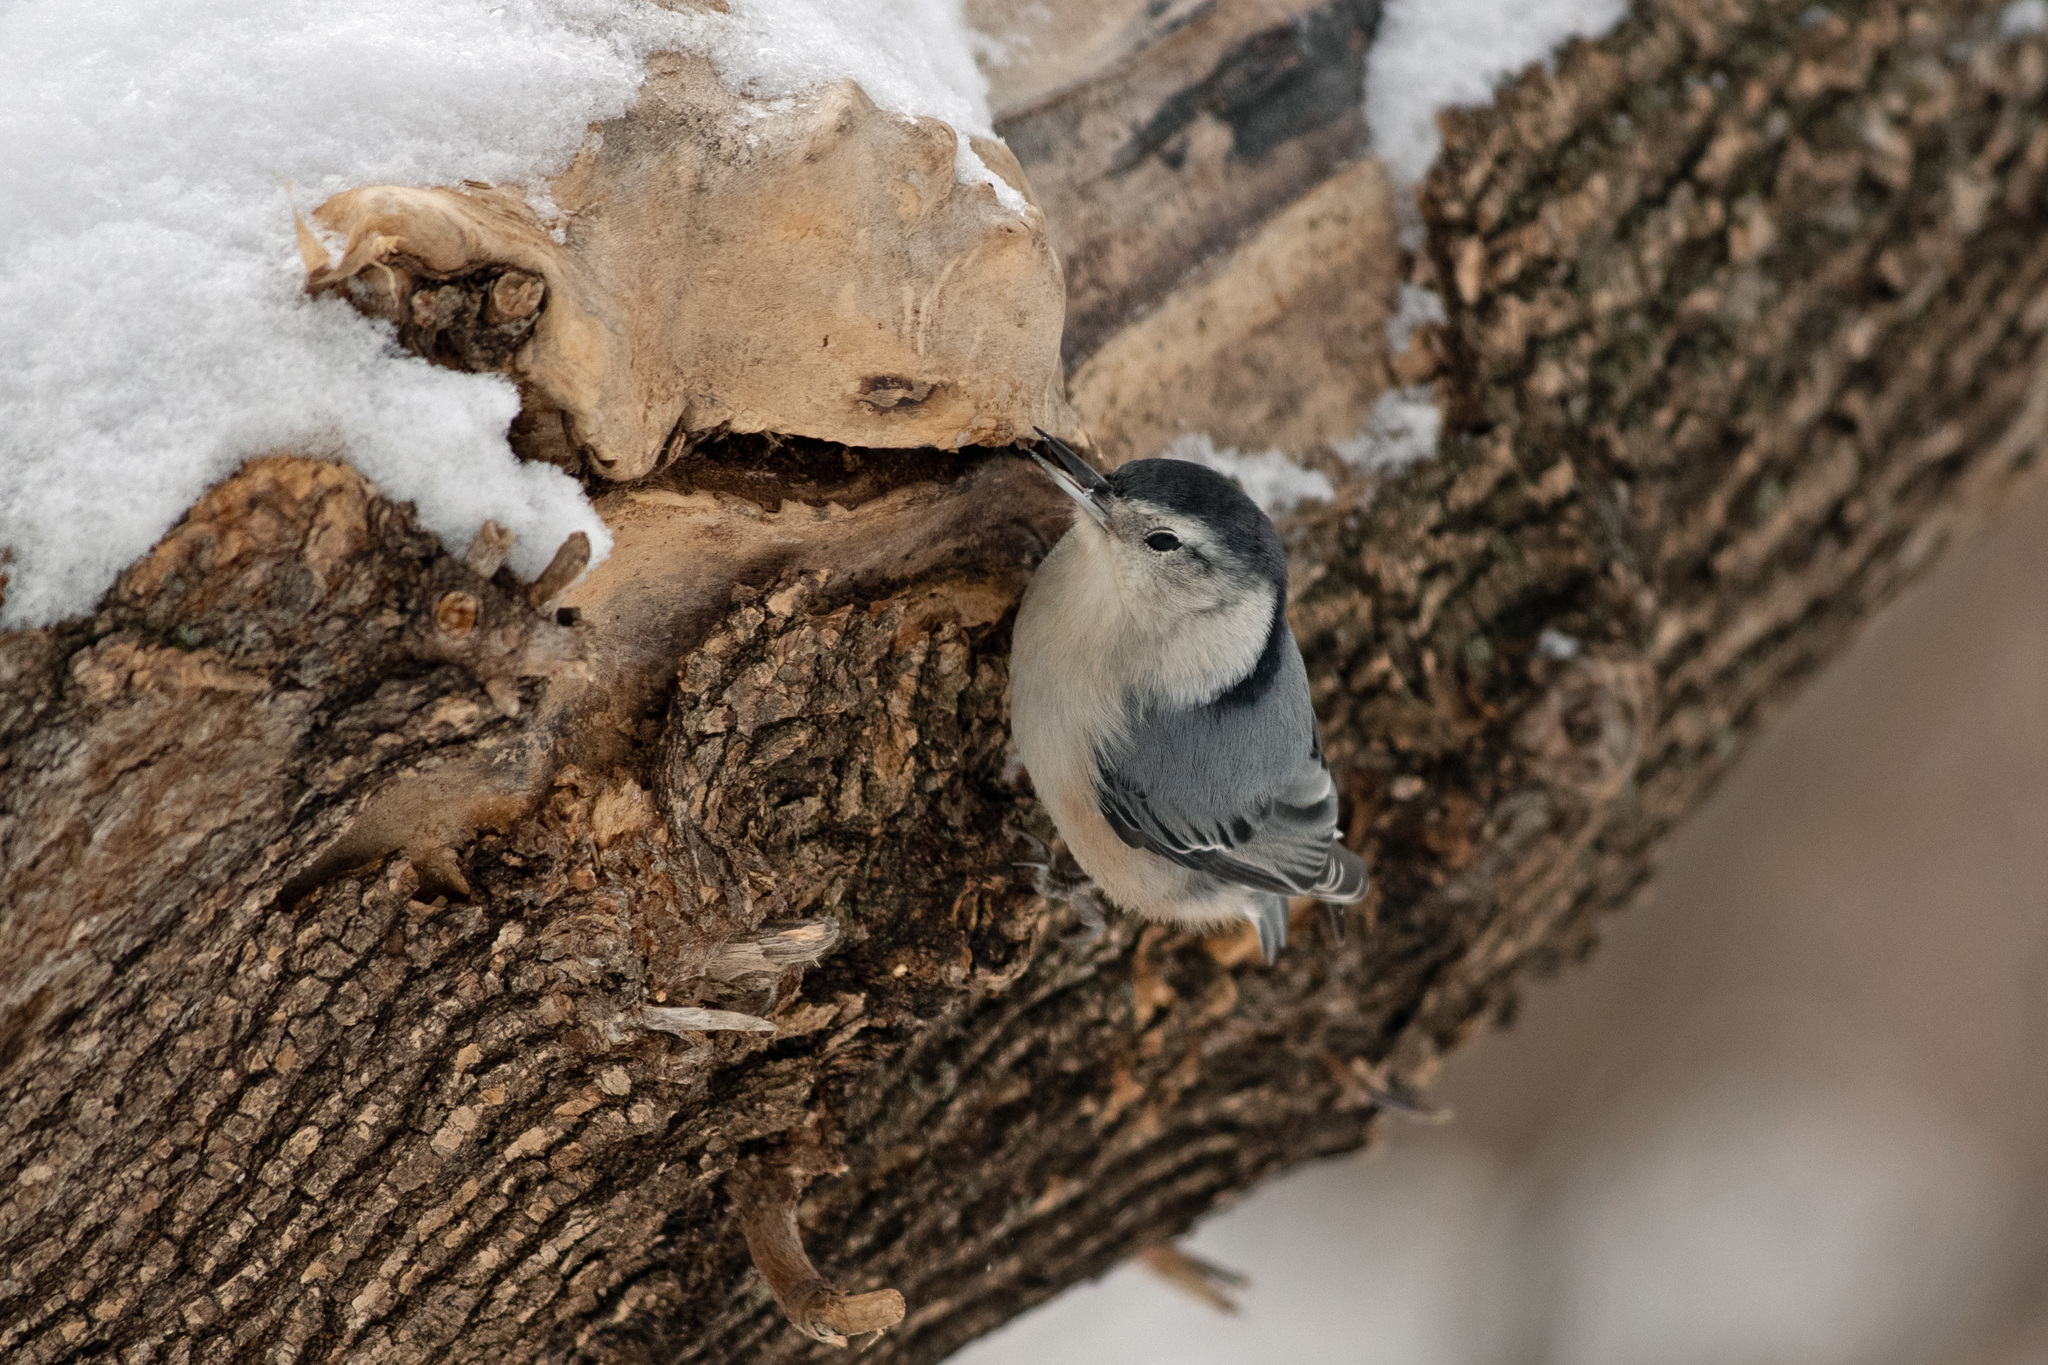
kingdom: Animalia
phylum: Chordata
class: Aves
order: Passeriformes
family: Sittidae
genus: Sitta
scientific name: Sitta carolinensis
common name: White-breasted nuthatch
